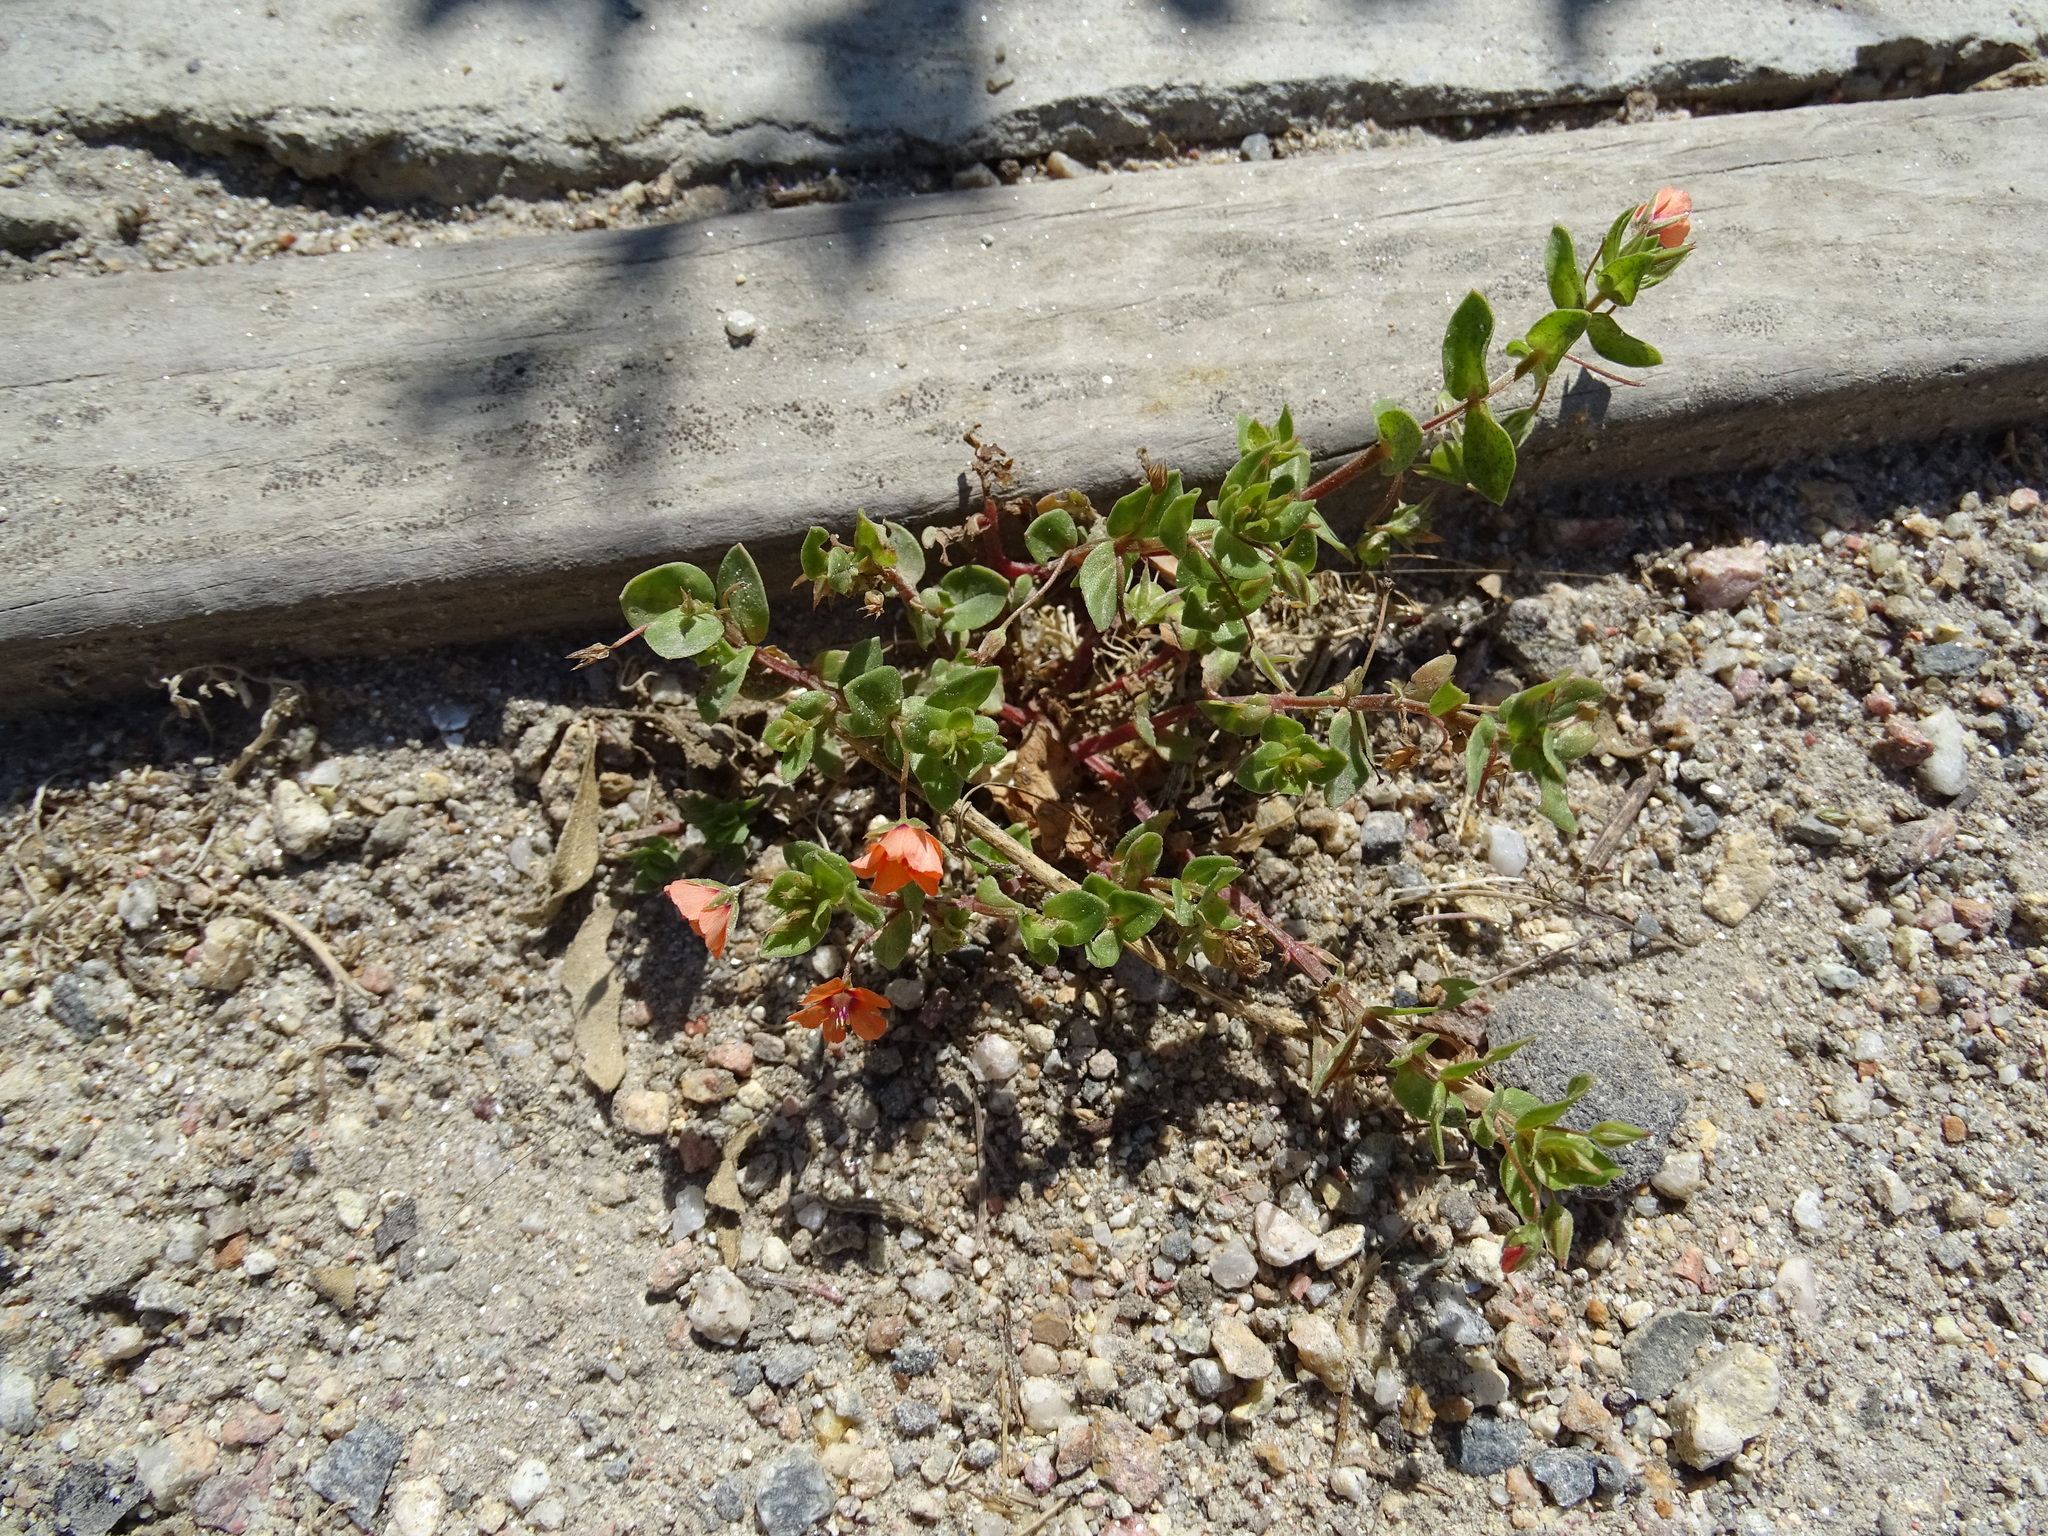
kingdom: Plantae
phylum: Tracheophyta
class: Magnoliopsida
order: Ericales
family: Primulaceae
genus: Lysimachia
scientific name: Lysimachia arvensis
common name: Scarlet pimpernel
